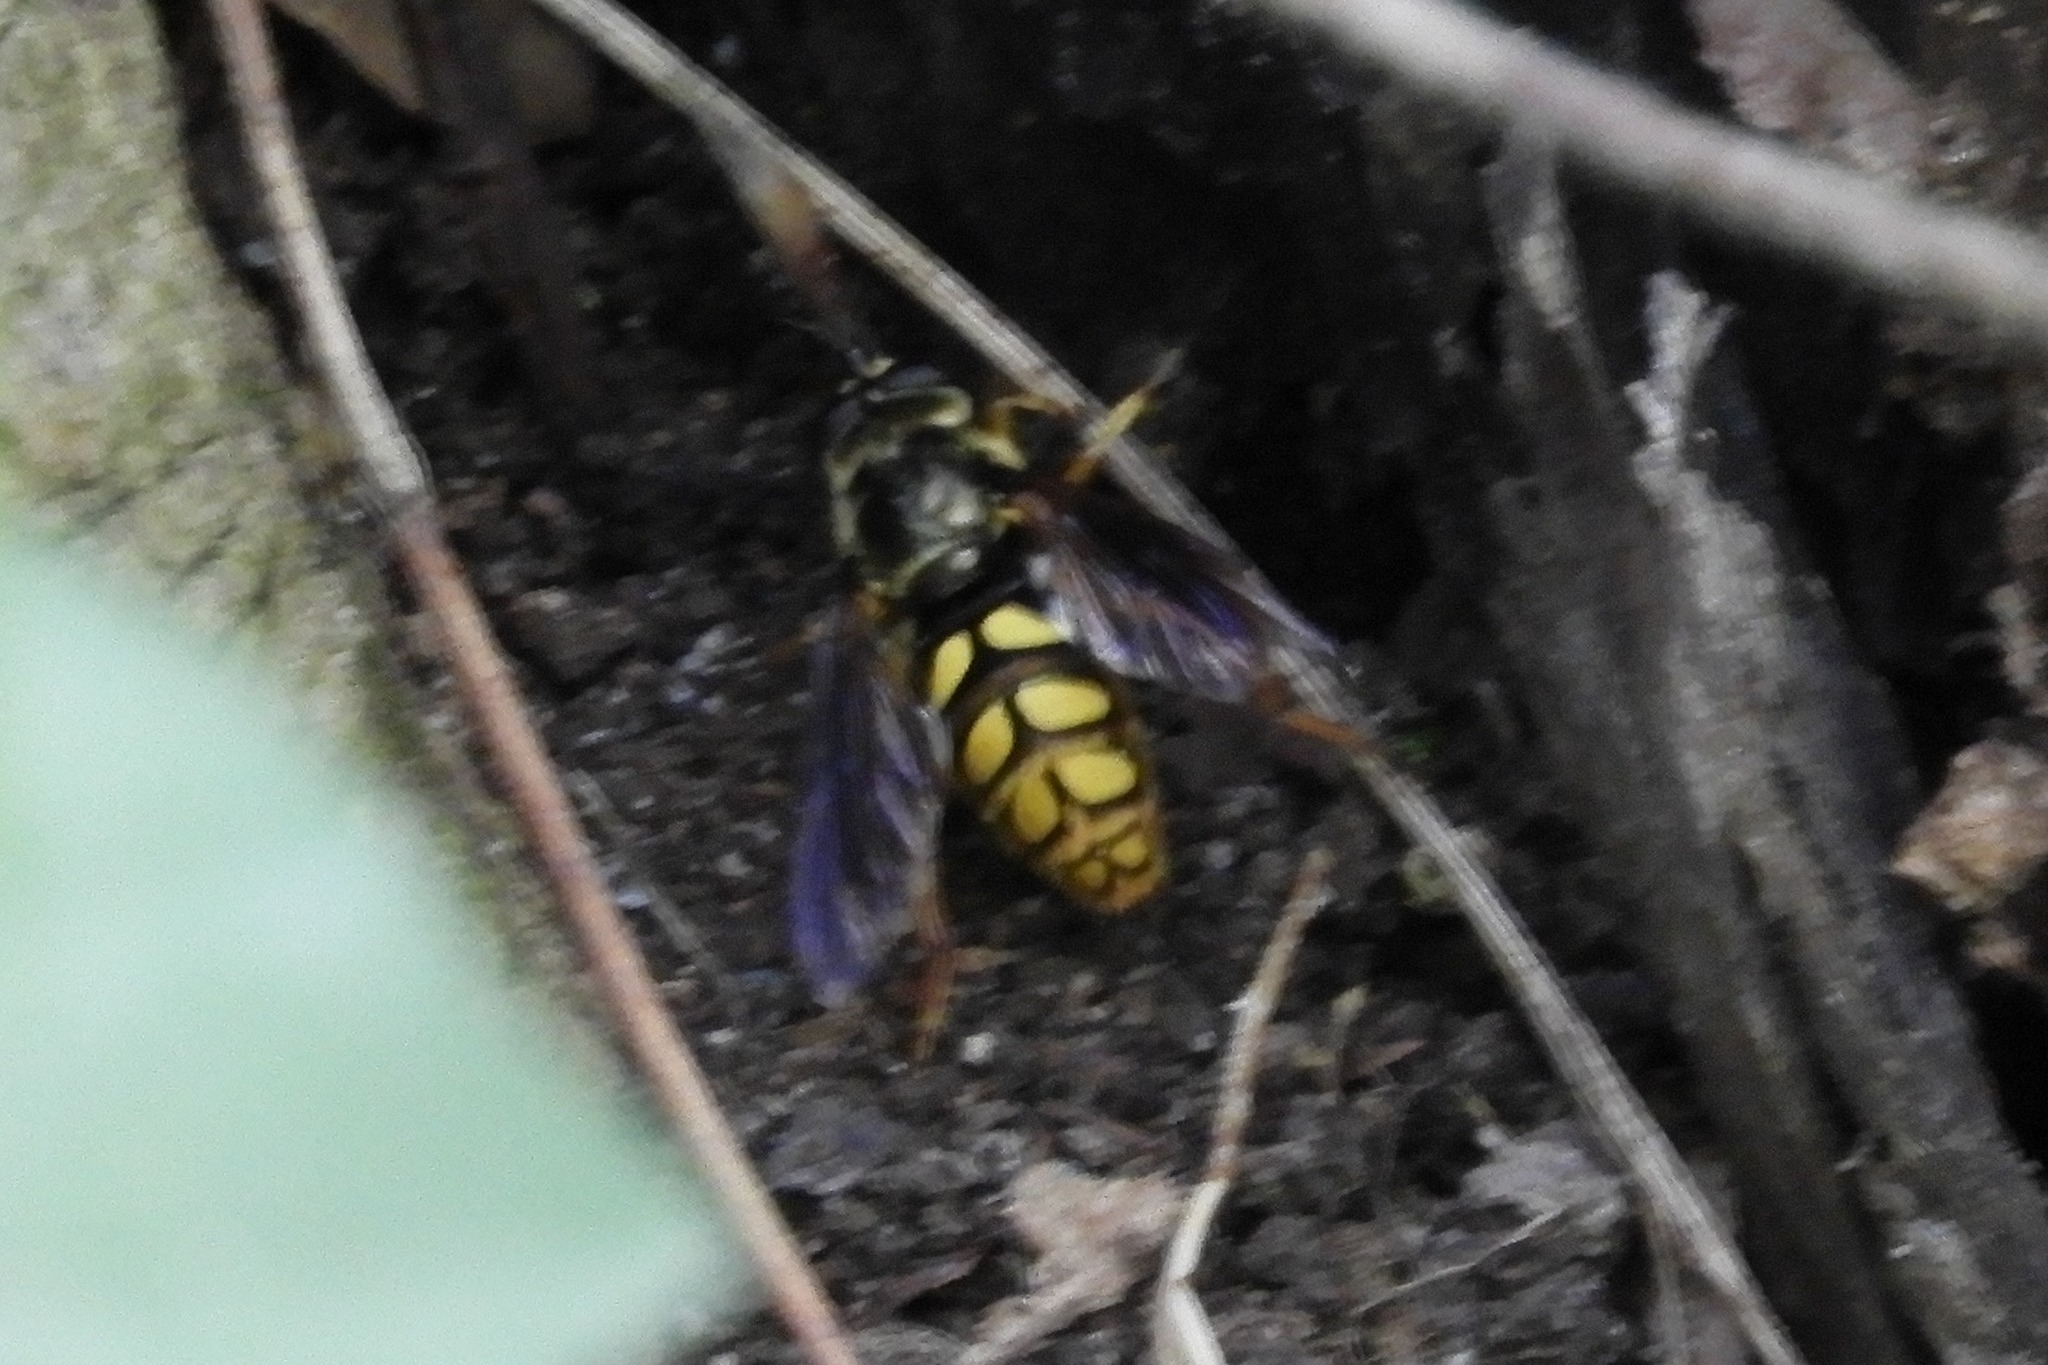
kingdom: Animalia
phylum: Arthropoda
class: Insecta
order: Diptera
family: Syrphidae
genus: Somula
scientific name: Somula decora
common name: Spotted wood fly
